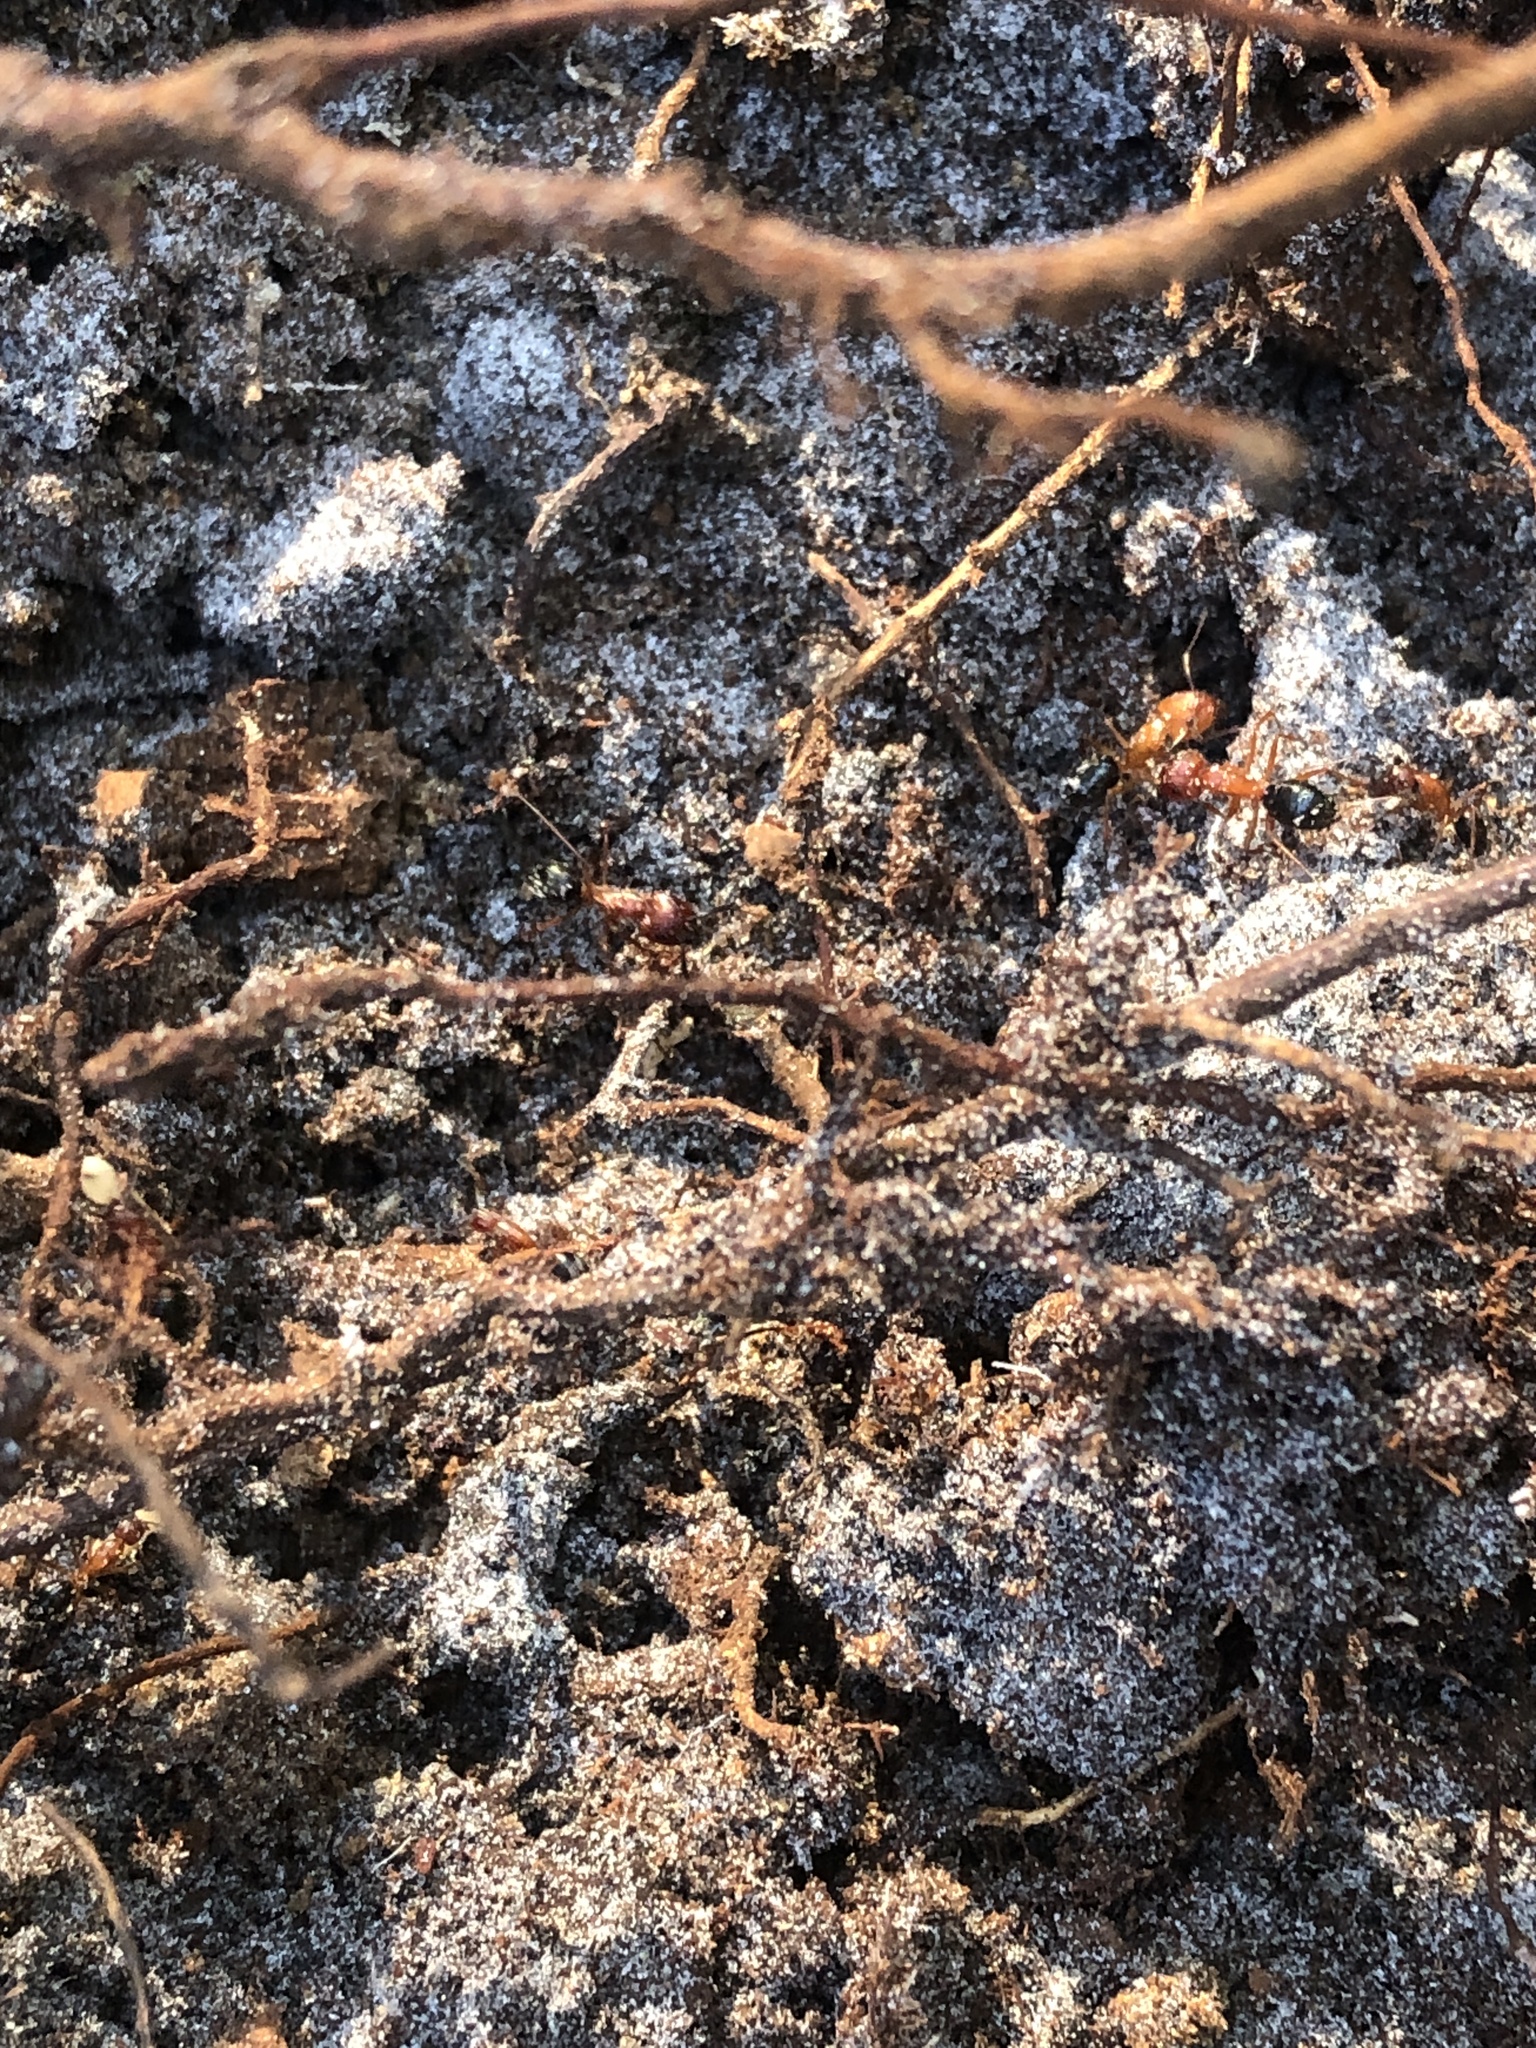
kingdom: Animalia
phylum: Arthropoda
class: Insecta
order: Hymenoptera
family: Formicidae
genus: Camponotus
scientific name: Camponotus floridanus
